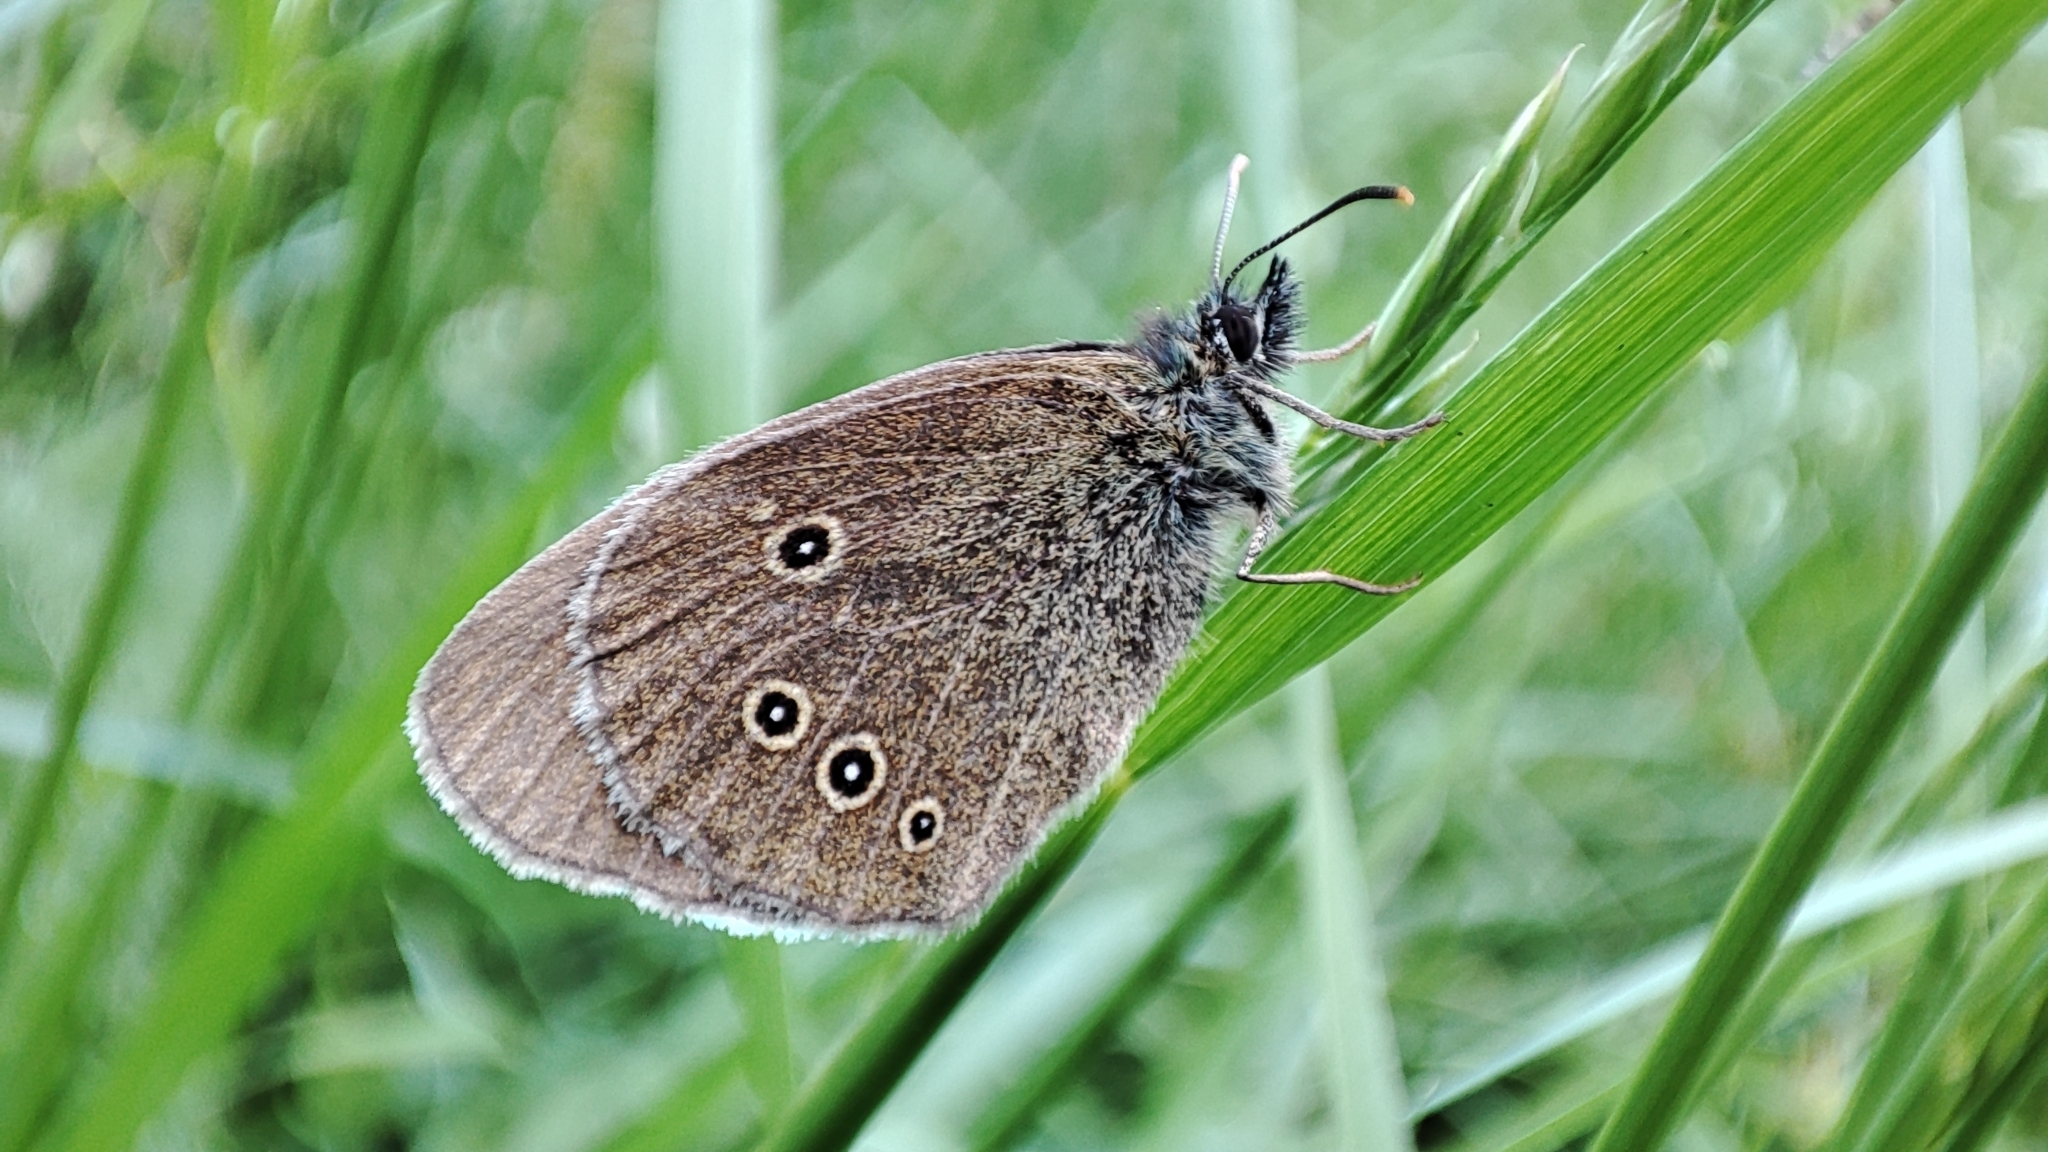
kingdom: Animalia
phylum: Arthropoda
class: Insecta
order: Lepidoptera
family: Nymphalidae
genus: Aphantopus
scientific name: Aphantopus hyperantus
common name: Ringlet
